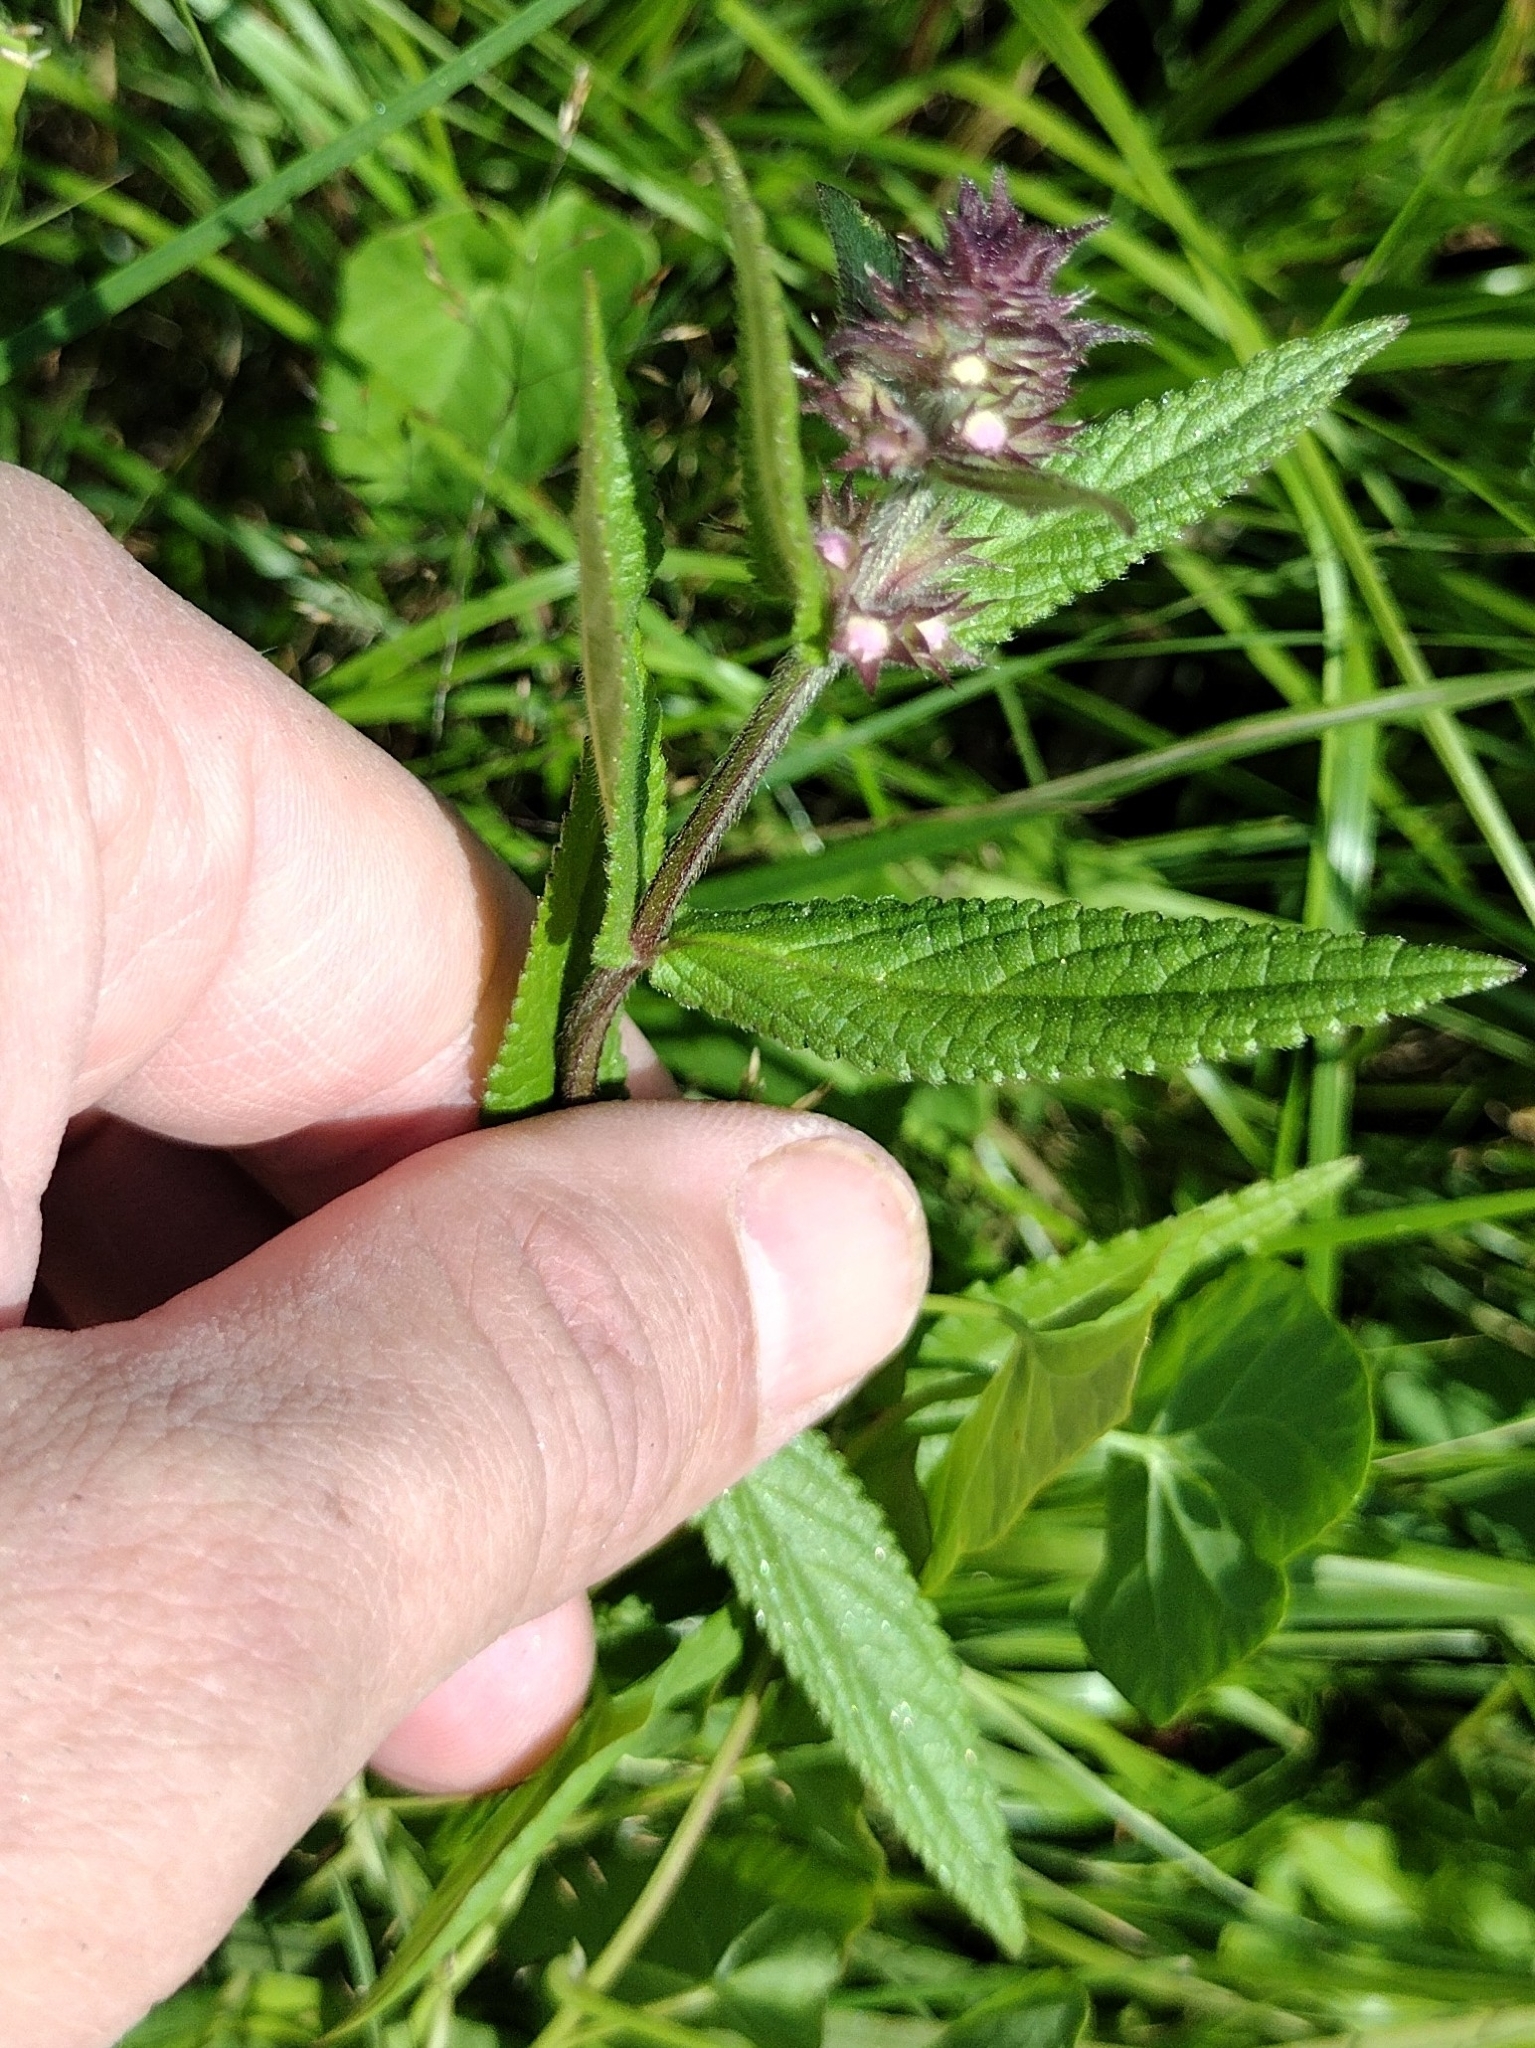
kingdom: Plantae
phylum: Tracheophyta
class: Magnoliopsida
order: Lamiales
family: Lamiaceae
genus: Stachys
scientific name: Stachys palustris
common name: Marsh woundwort
